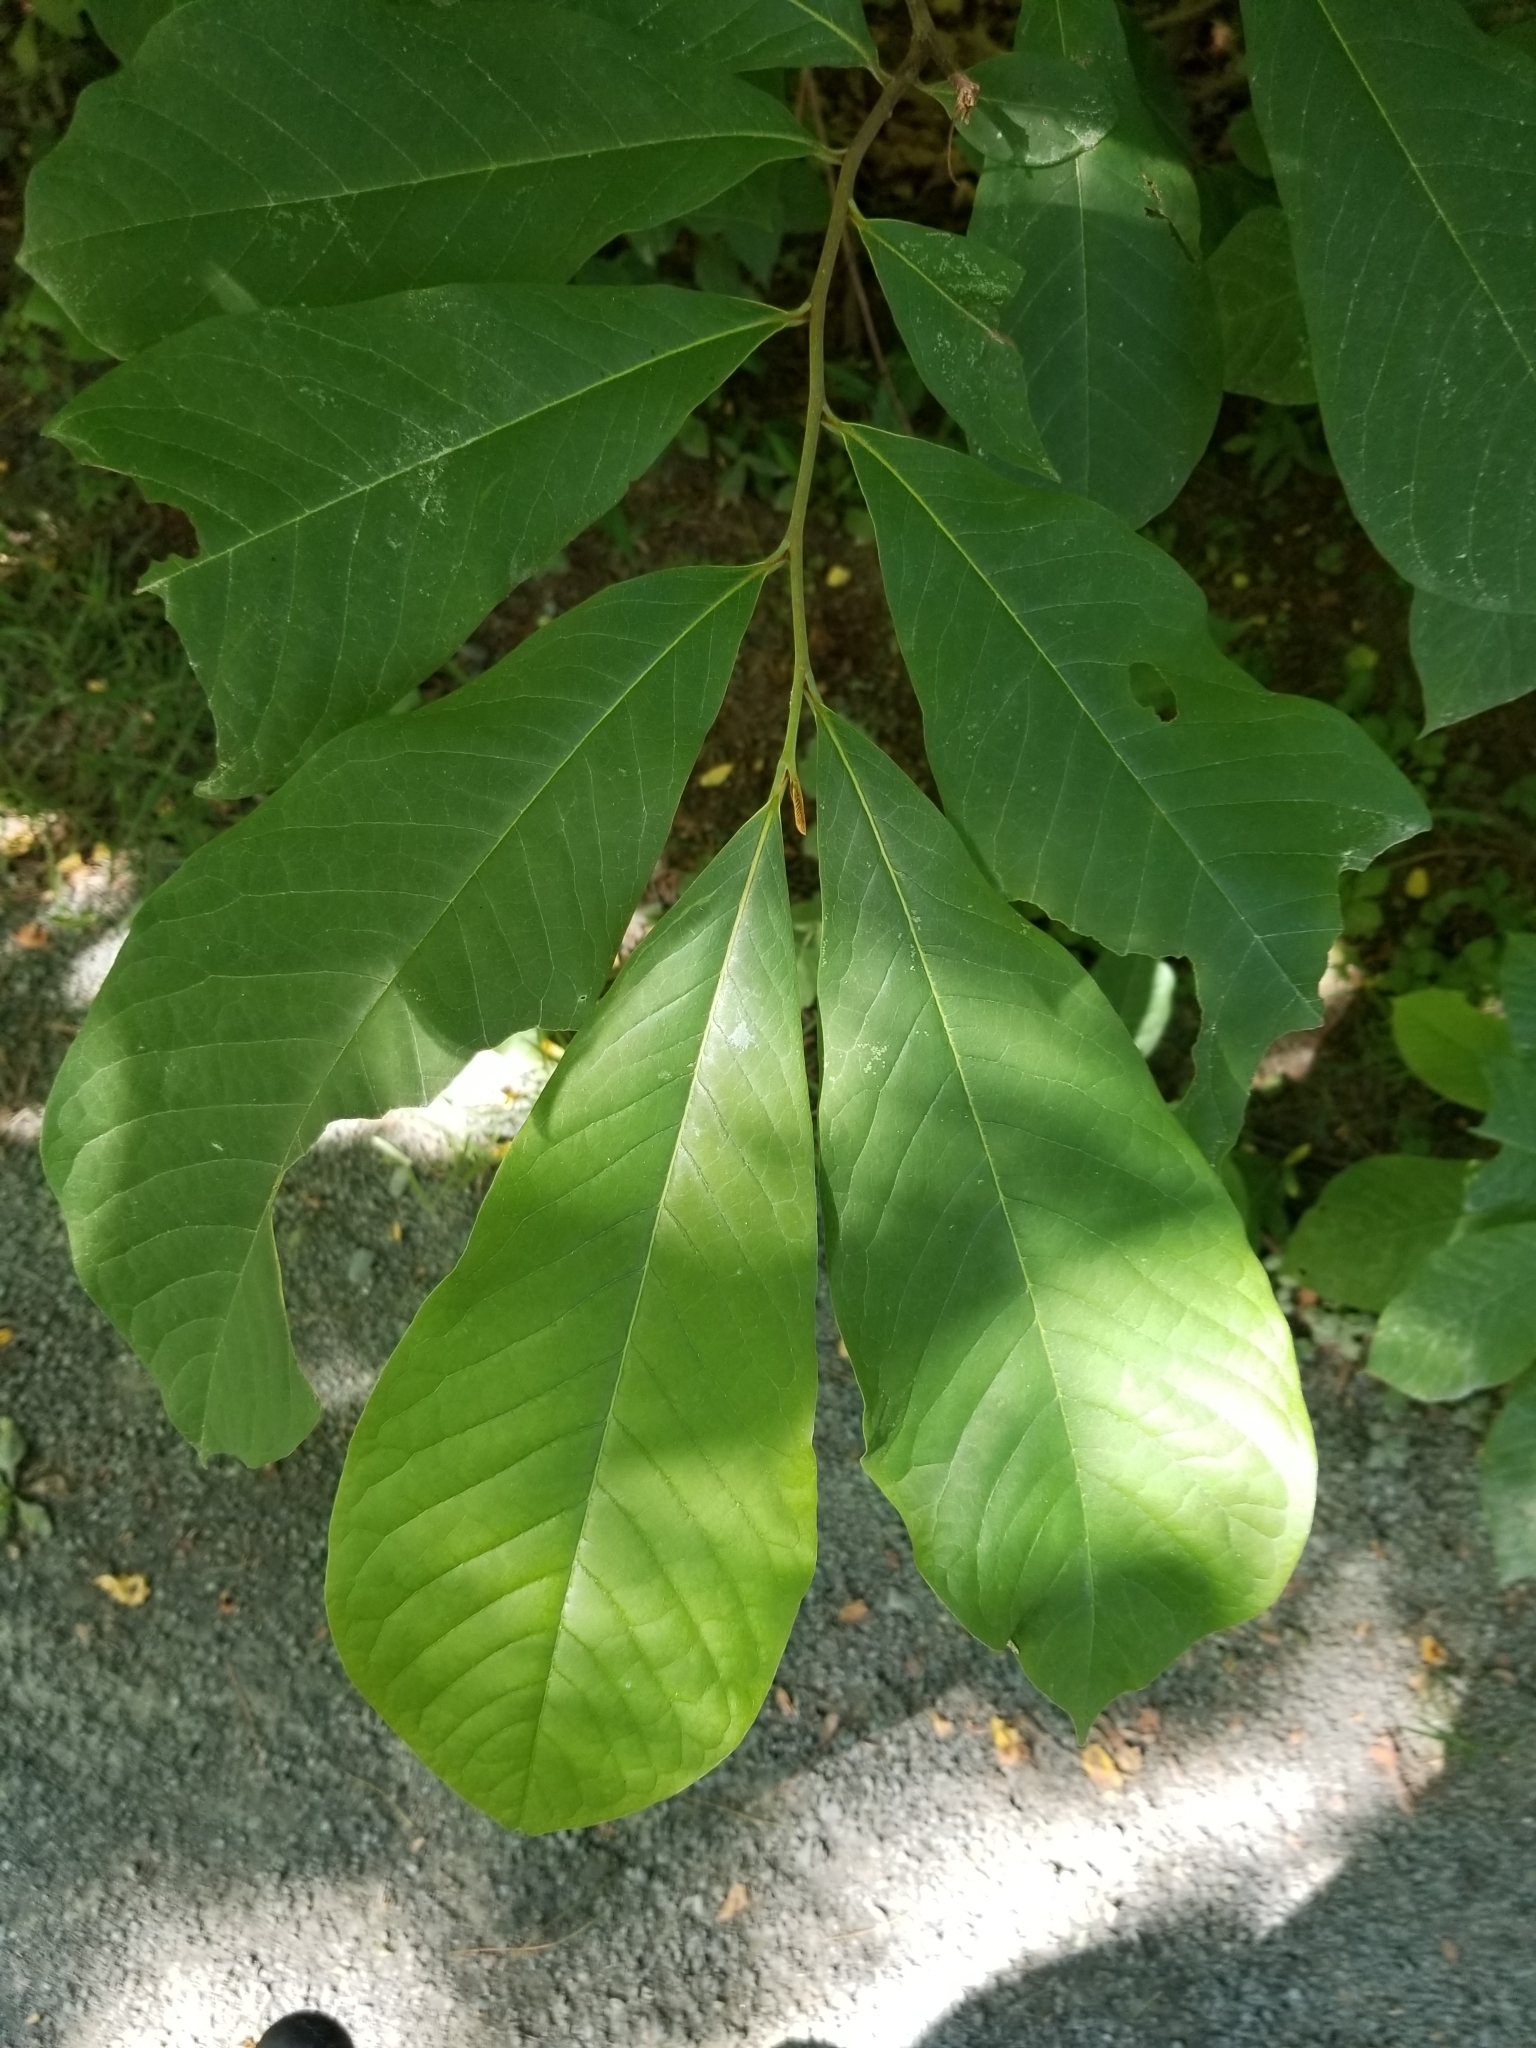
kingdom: Plantae
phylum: Tracheophyta
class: Magnoliopsida
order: Magnoliales
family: Annonaceae
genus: Asimina
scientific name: Asimina triloba
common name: Dog-banana
